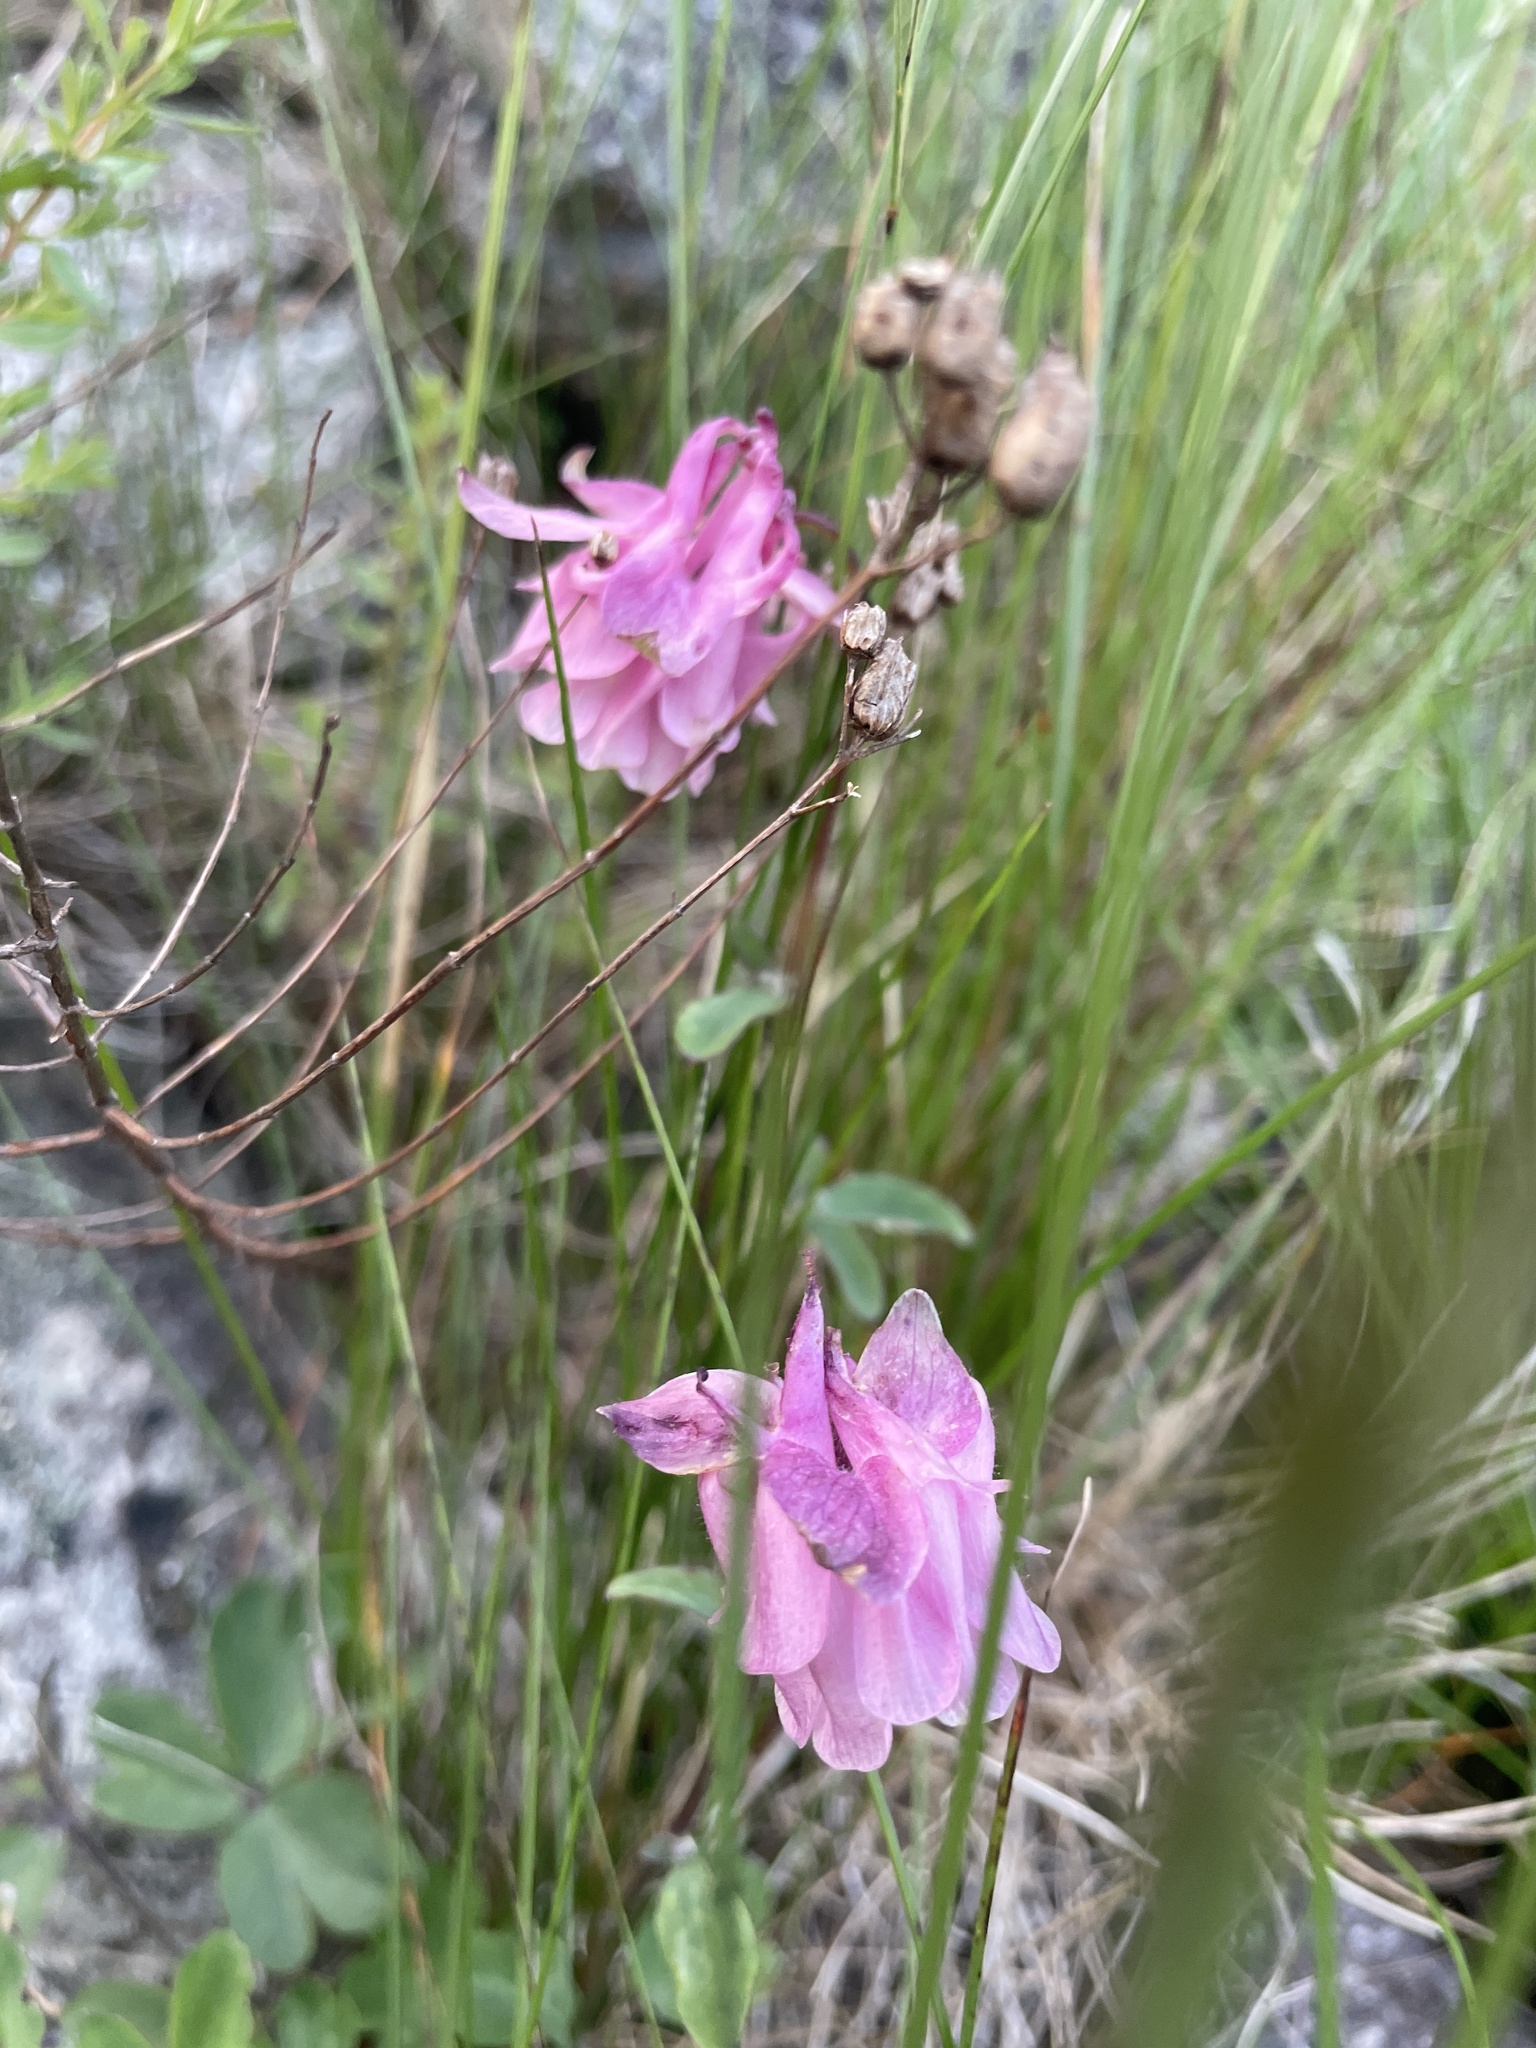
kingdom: Plantae
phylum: Tracheophyta
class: Magnoliopsida
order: Ranunculales
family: Ranunculaceae
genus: Aquilegia
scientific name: Aquilegia vulgaris
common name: Columbine
